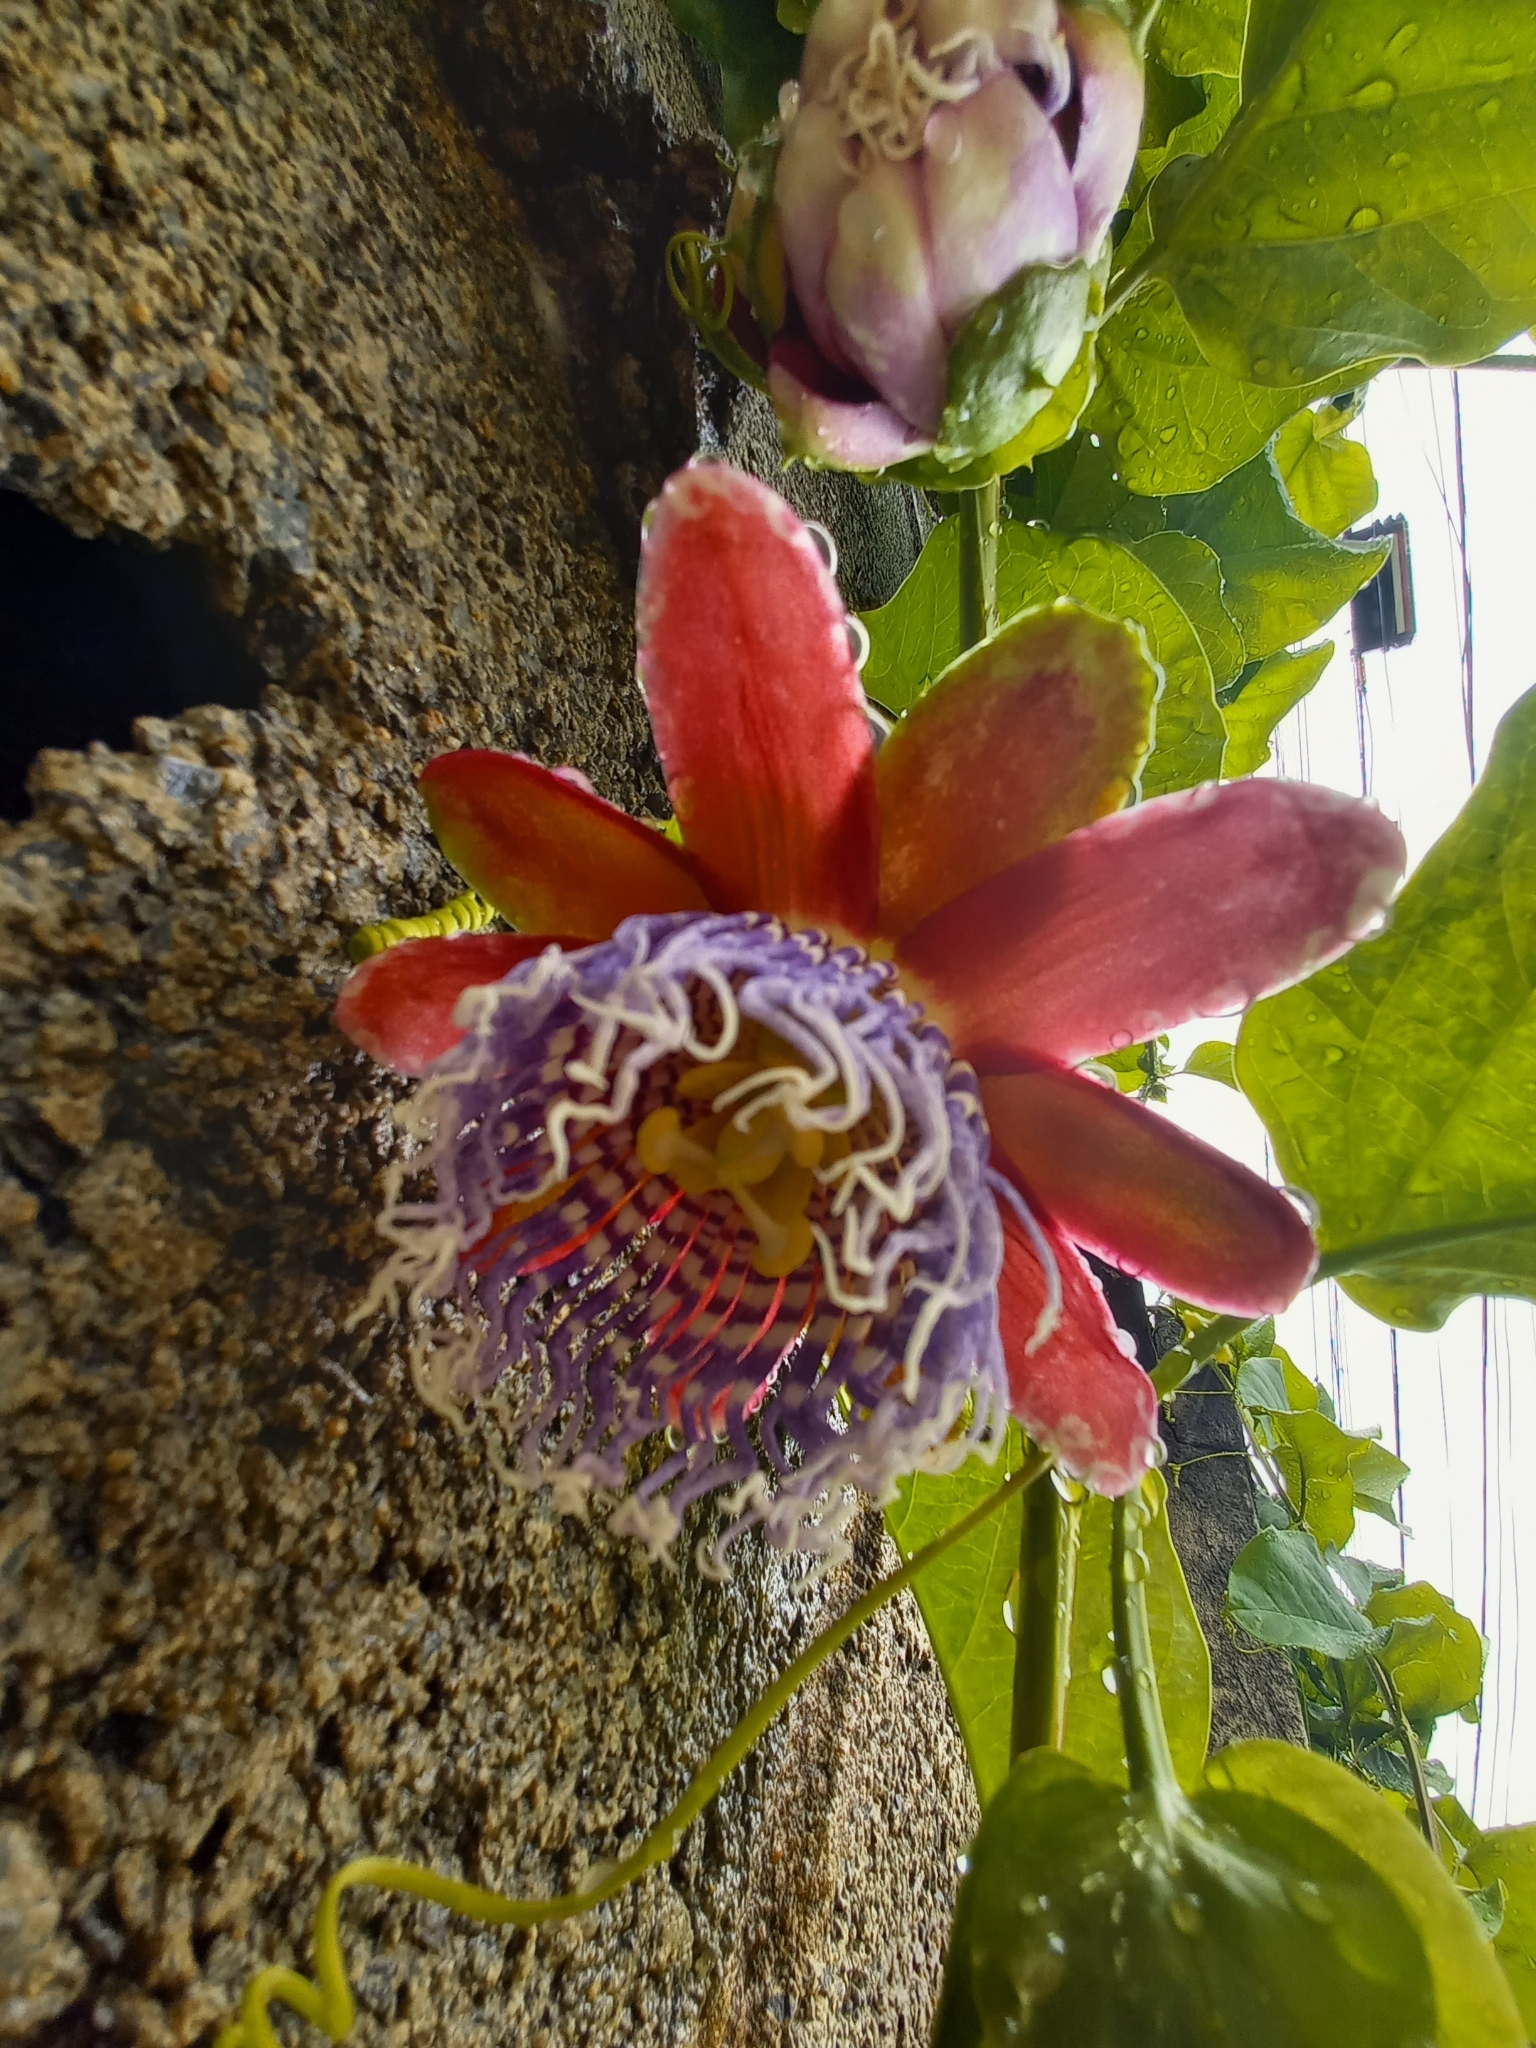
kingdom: Plantae
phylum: Tracheophyta
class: Magnoliopsida
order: Malpighiales
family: Passifloraceae
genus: Passiflora
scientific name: Passiflora alata
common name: Wing-stemmed passion flower
